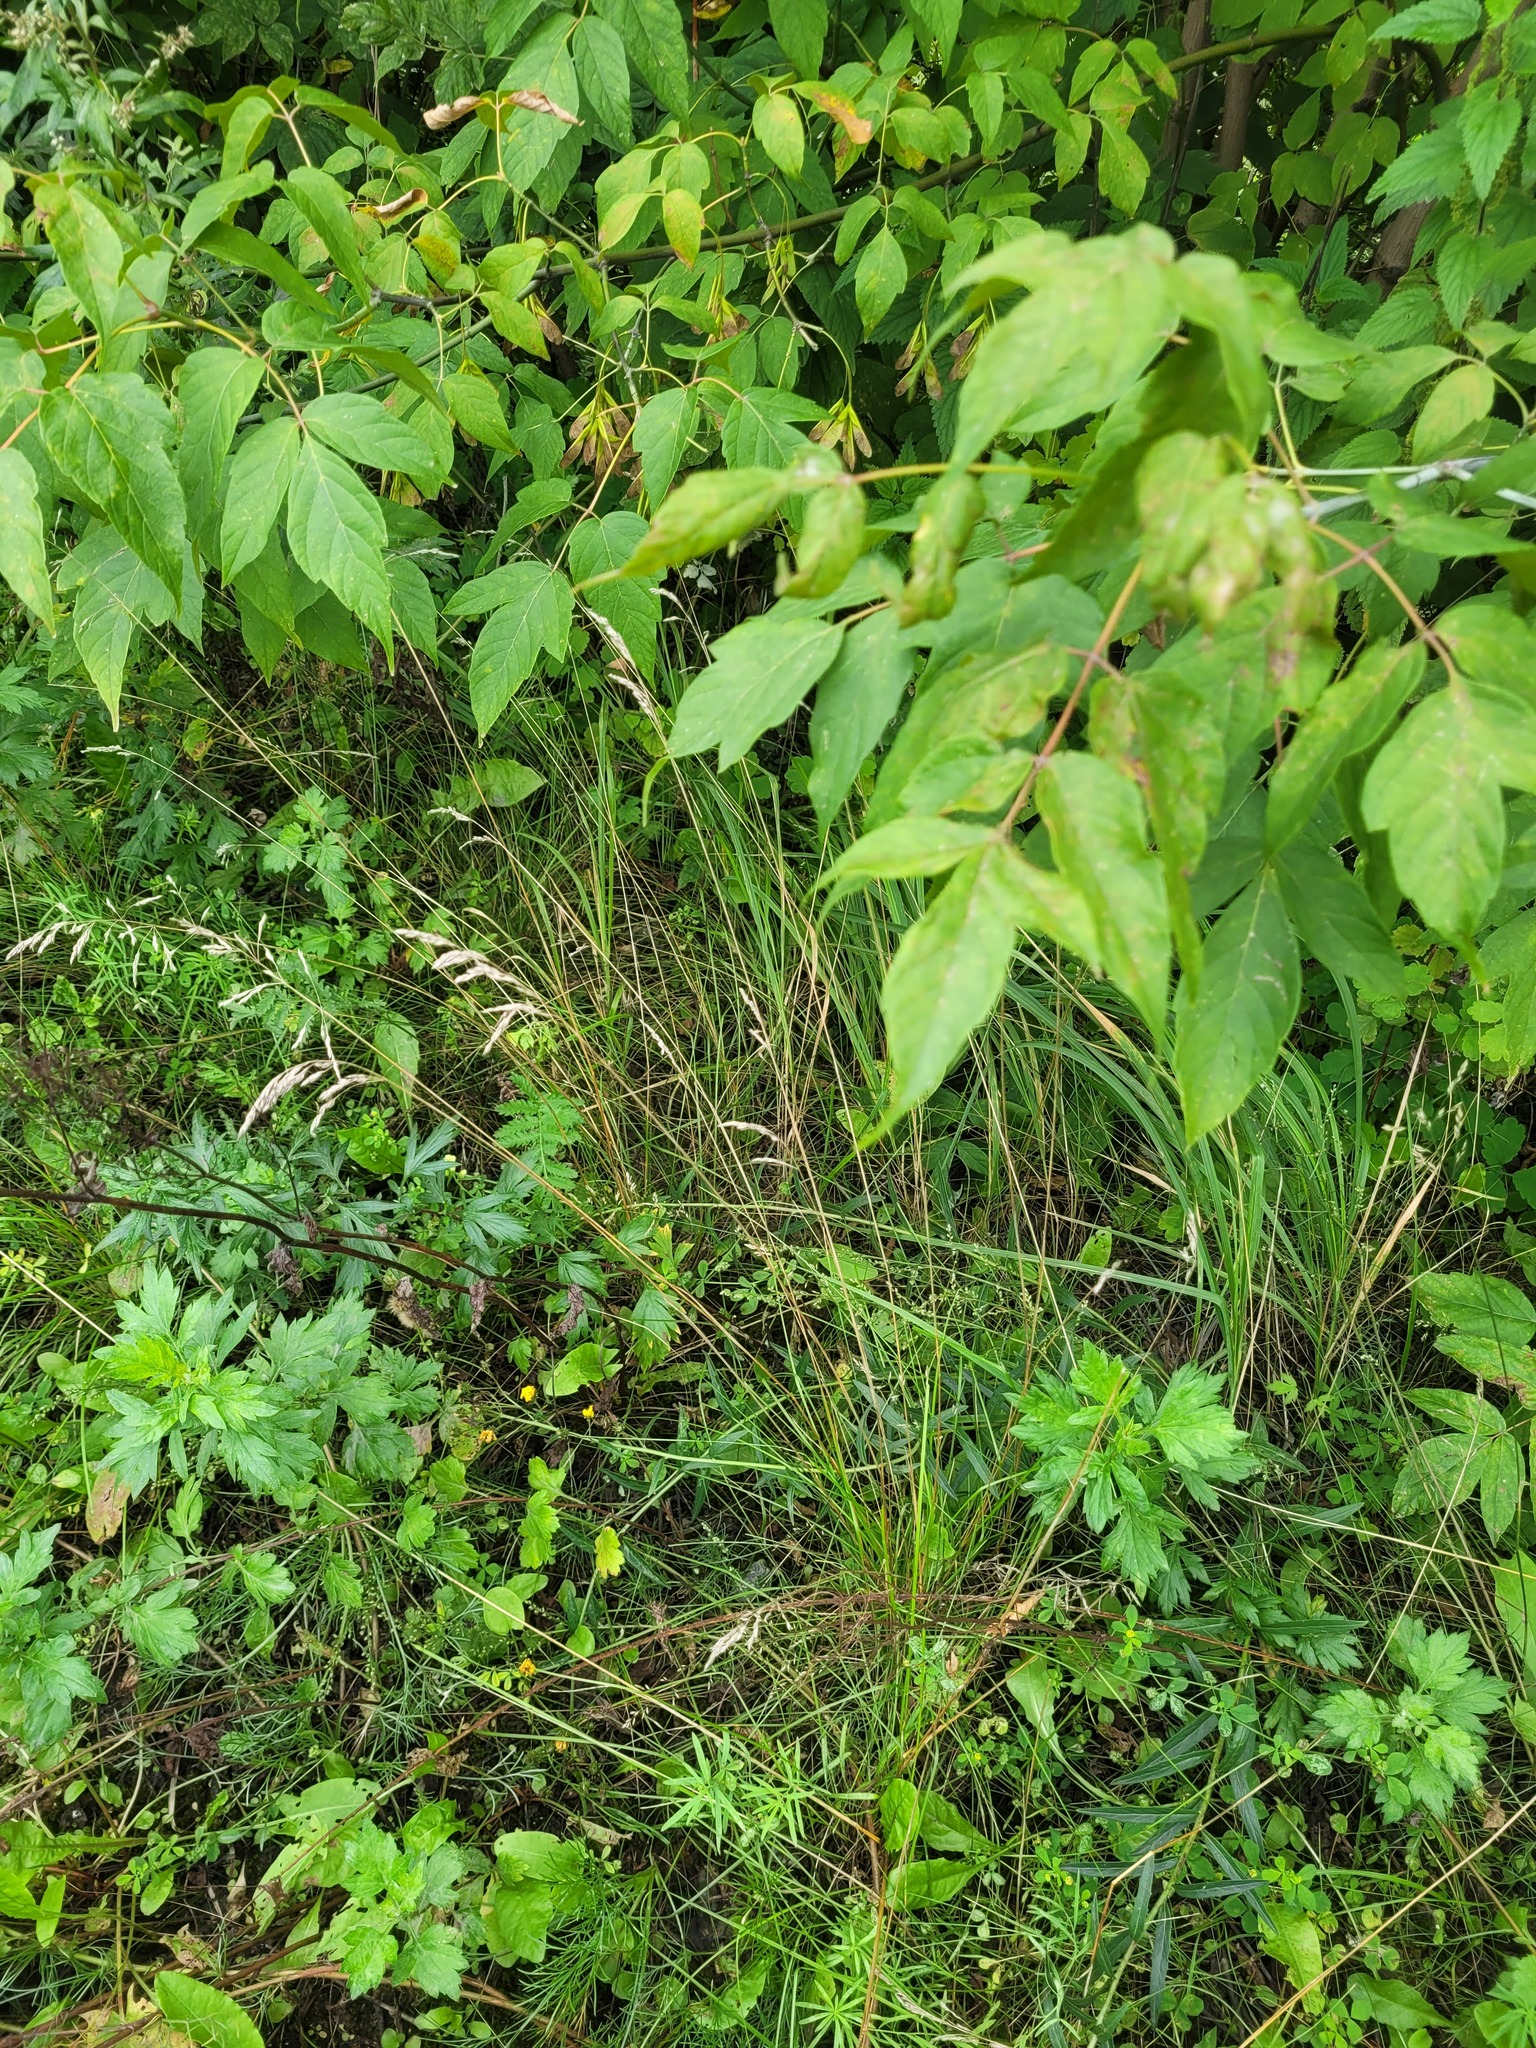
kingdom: Plantae
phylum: Tracheophyta
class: Liliopsida
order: Poales
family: Poaceae
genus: Poa
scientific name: Poa angustifolia
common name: Narrow-leaved meadow-grass
